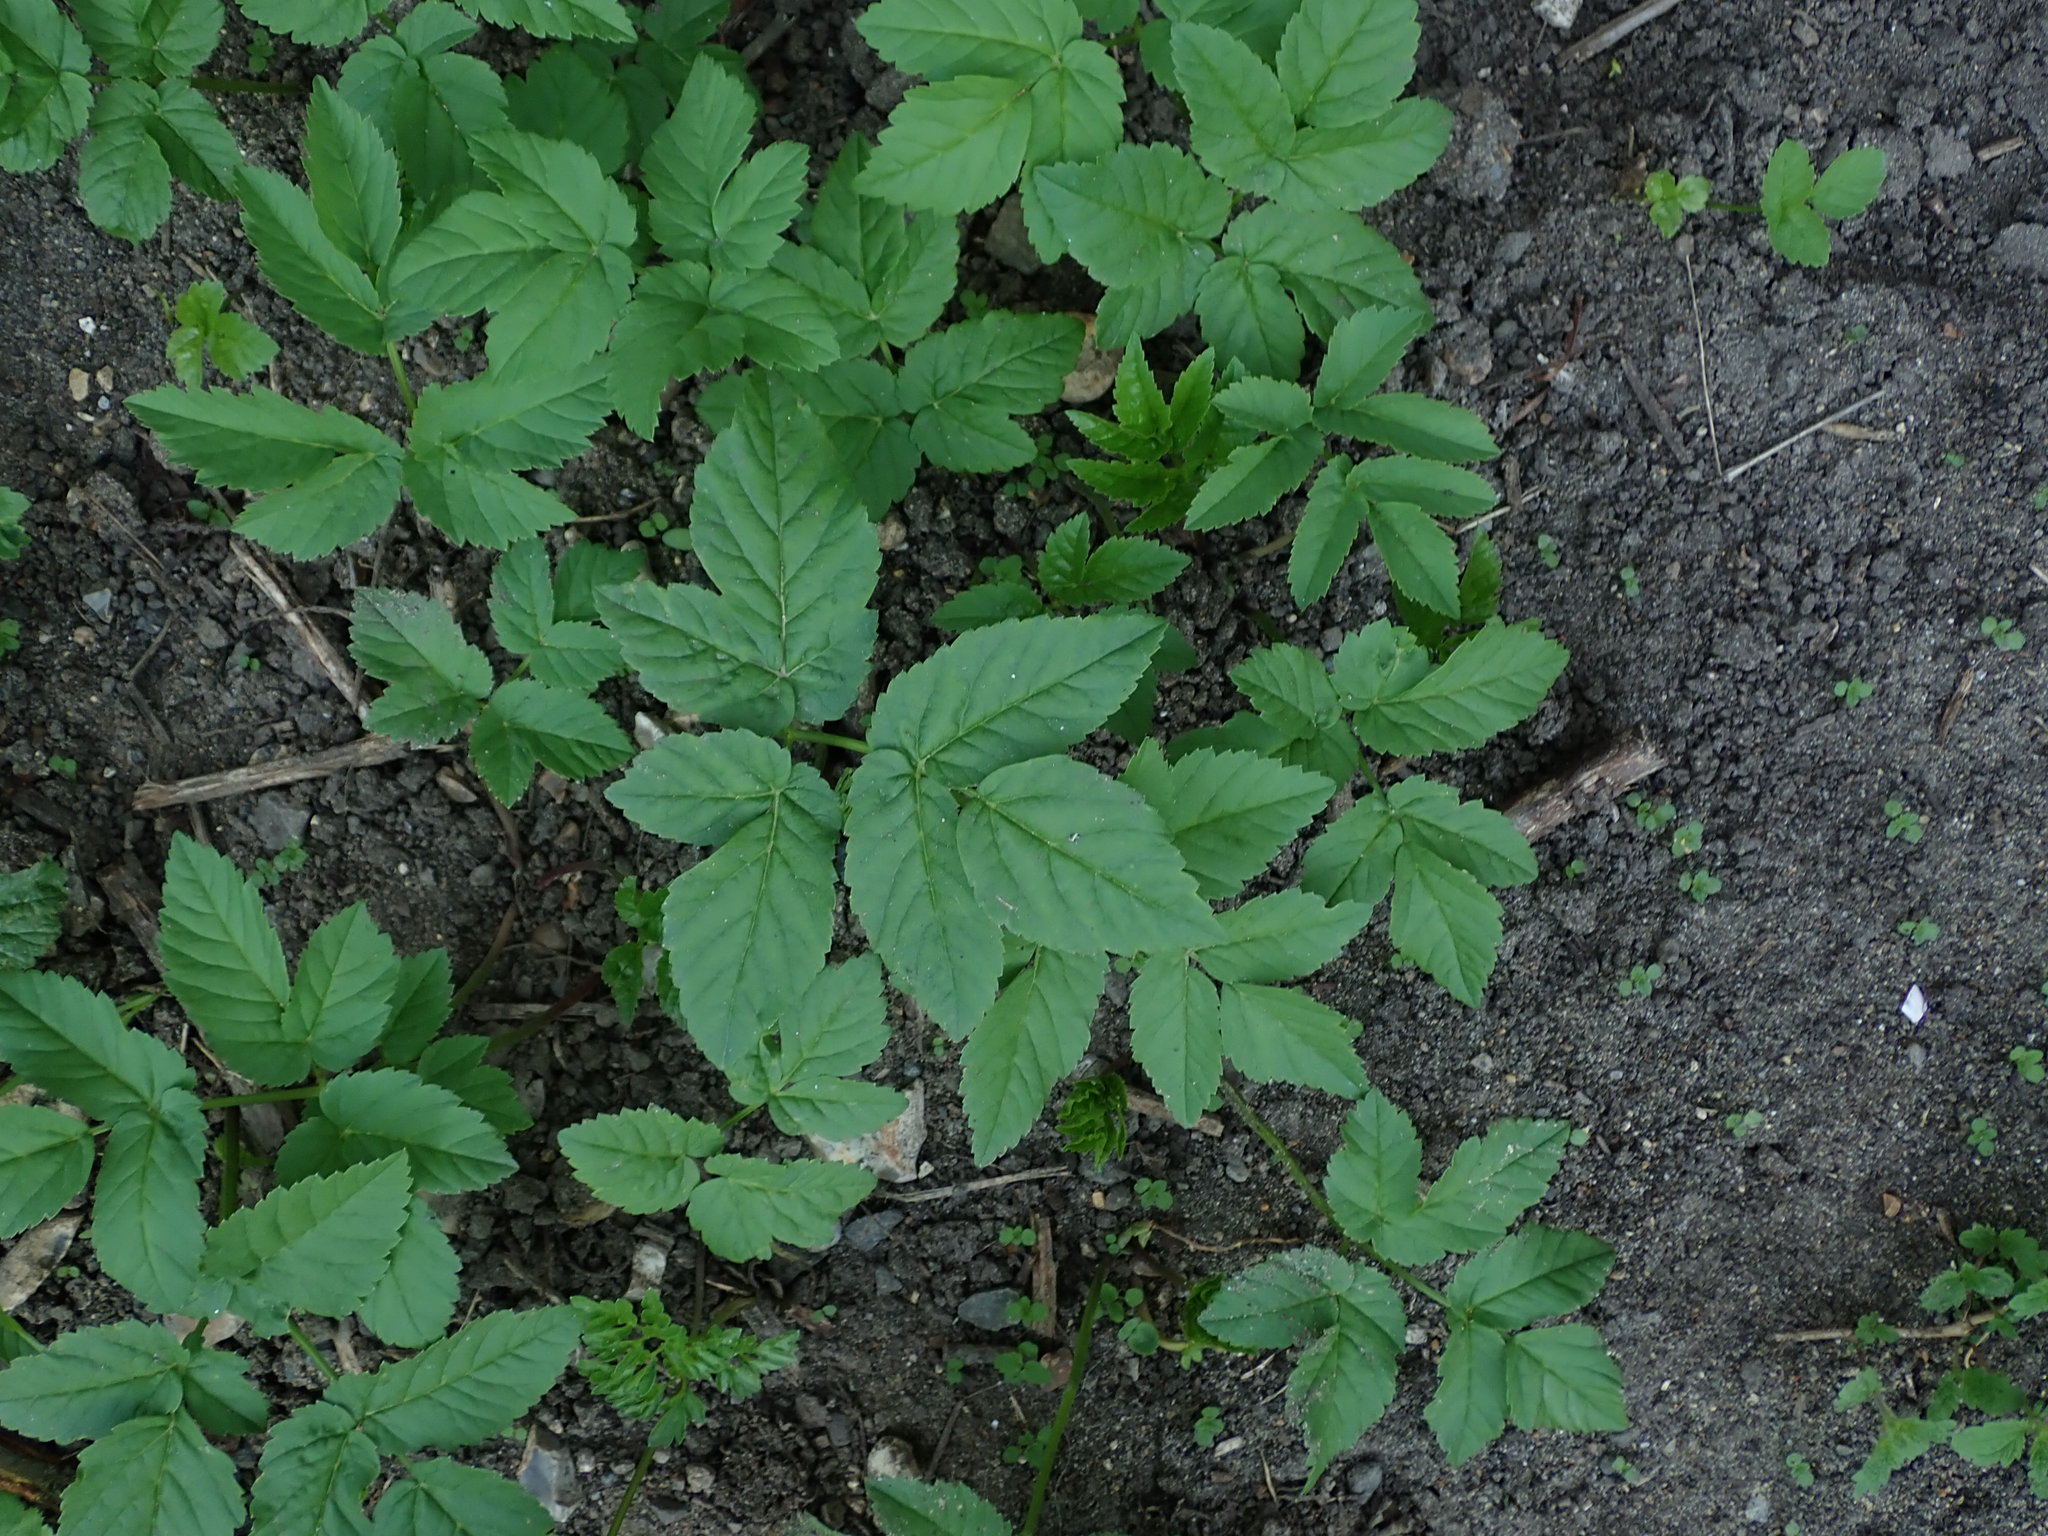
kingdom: Plantae
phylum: Tracheophyta
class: Magnoliopsida
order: Apiales
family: Apiaceae
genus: Aegopodium
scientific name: Aegopodium podagraria
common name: Ground-elder
